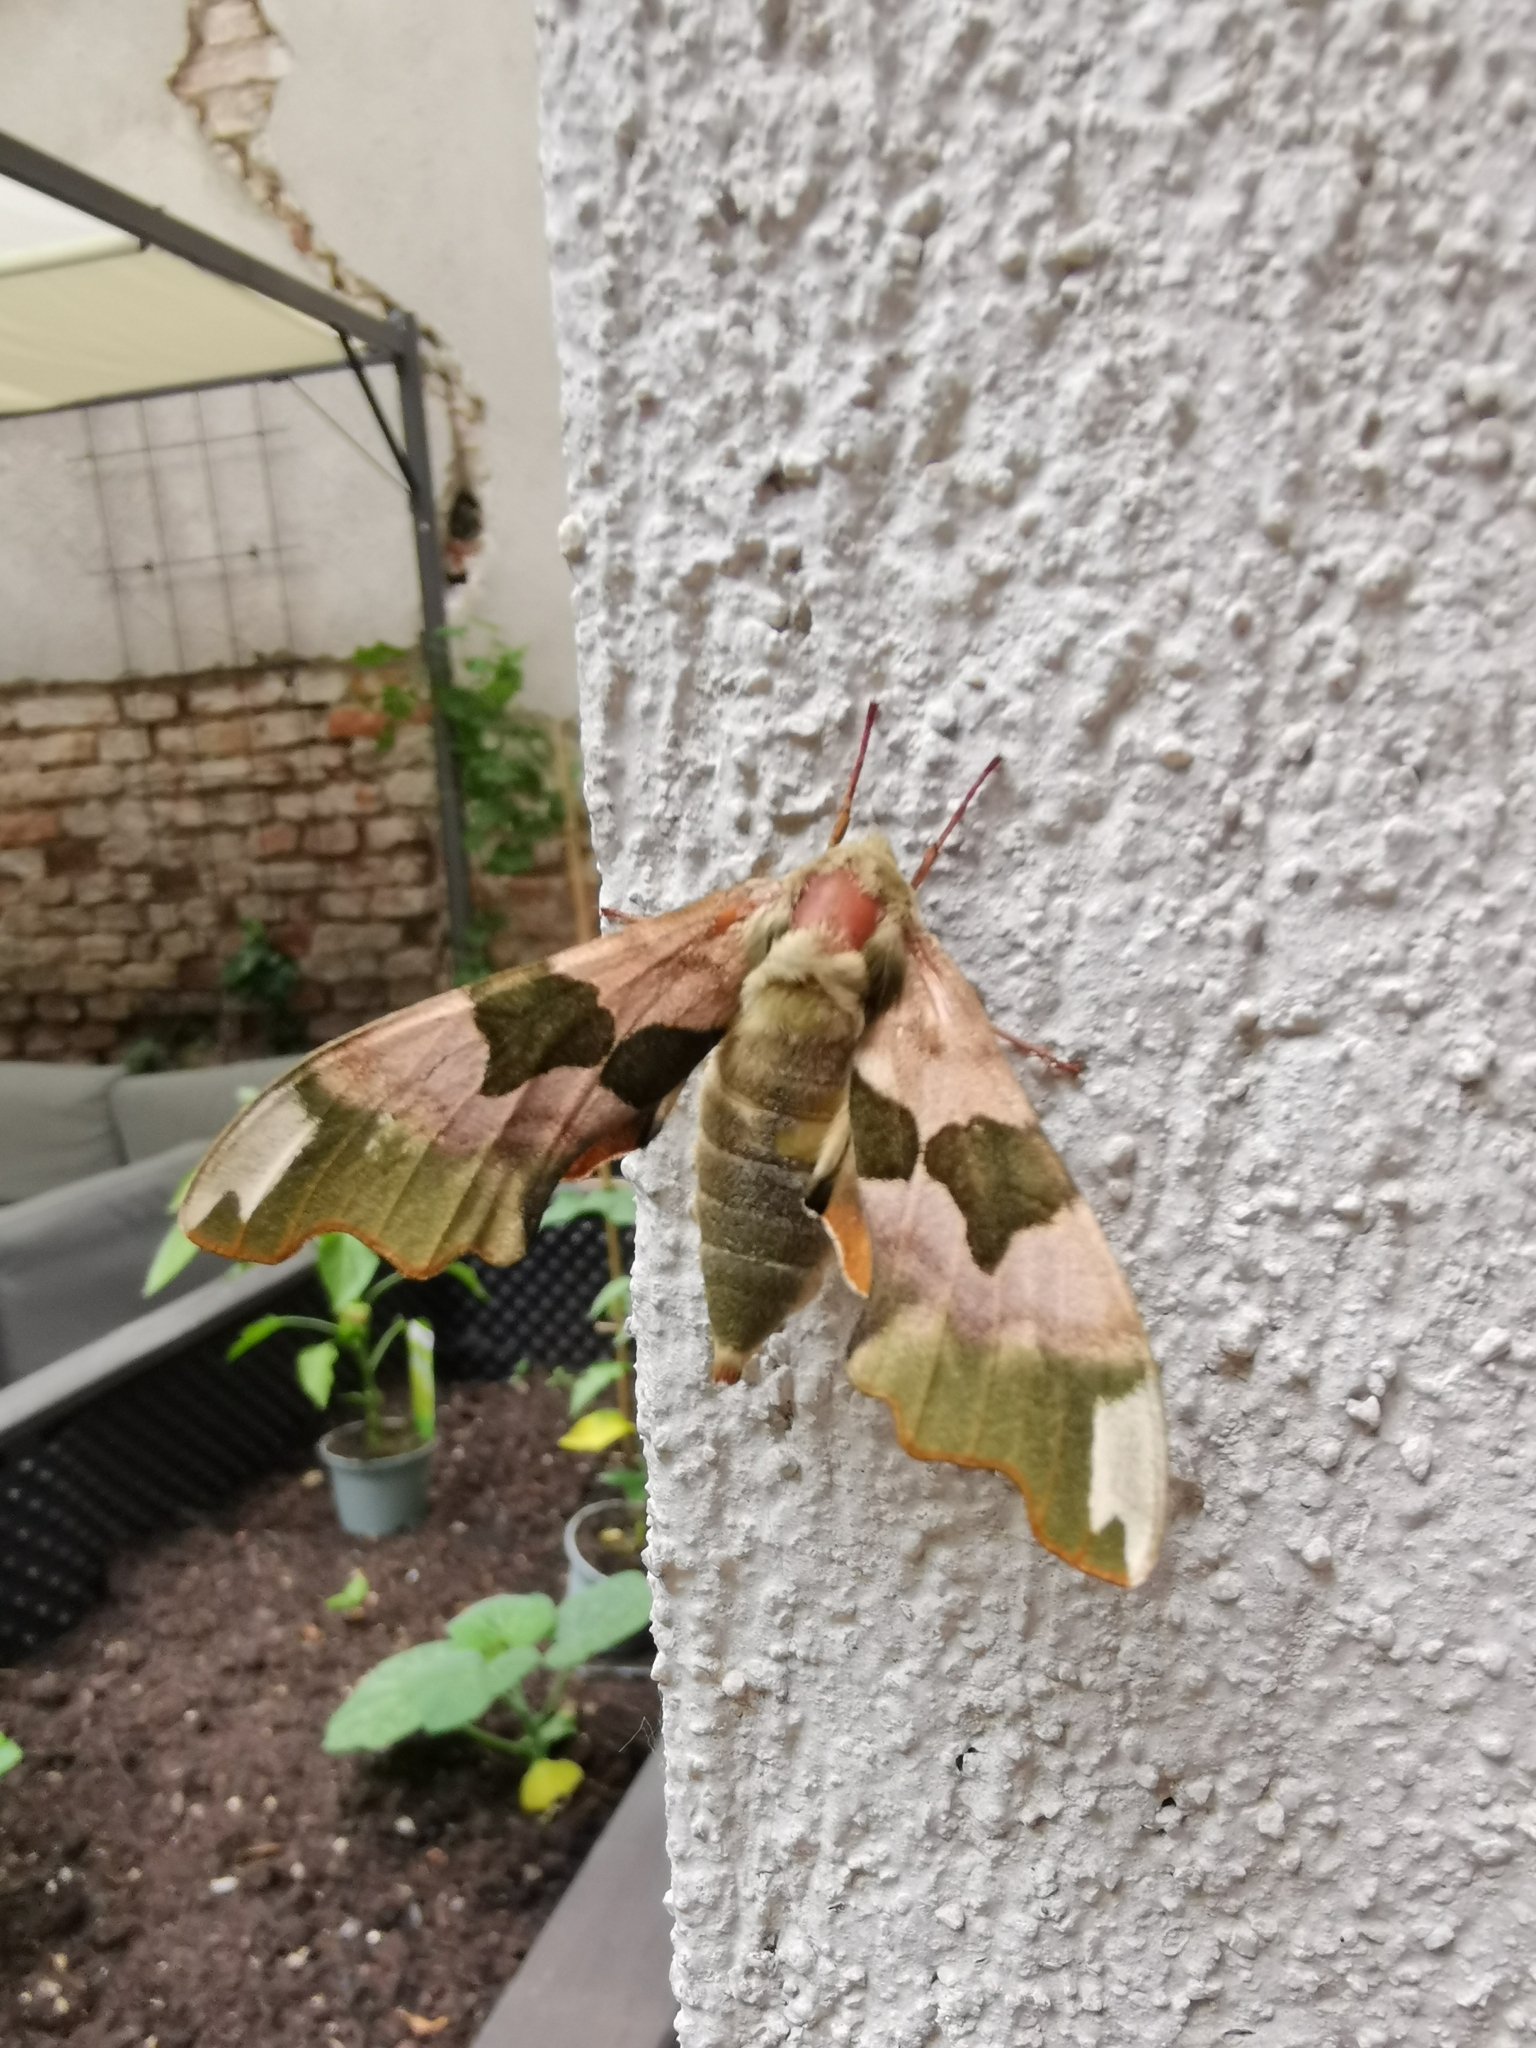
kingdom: Animalia
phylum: Arthropoda
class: Insecta
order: Lepidoptera
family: Sphingidae
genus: Mimas
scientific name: Mimas tiliae
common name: Lime hawk-moth
